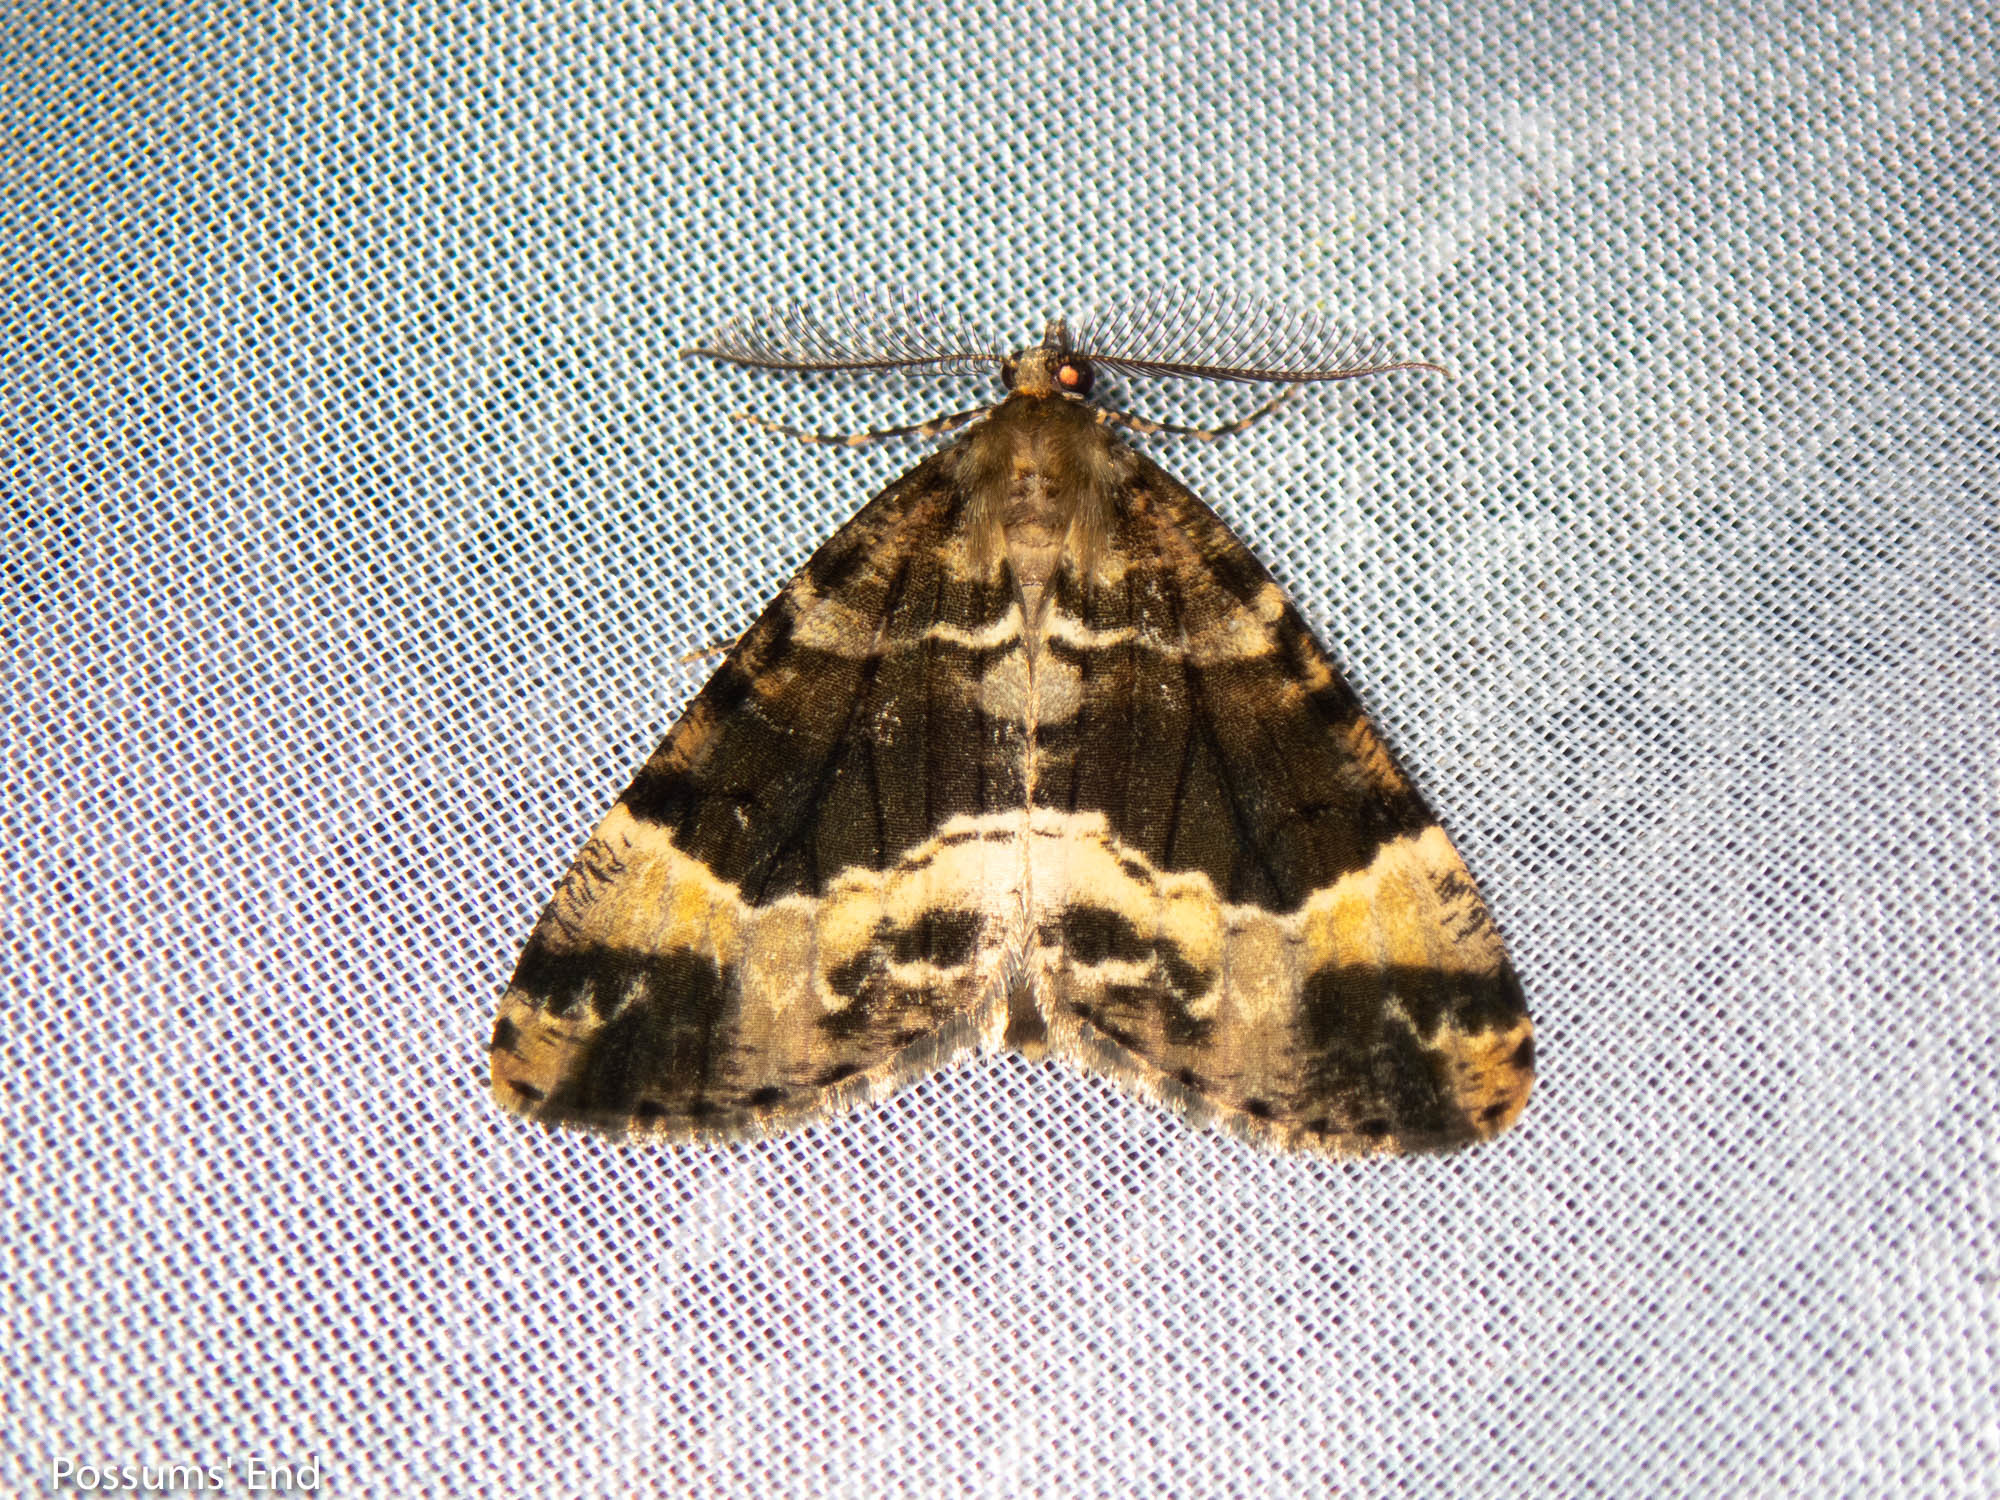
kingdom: Animalia
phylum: Arthropoda
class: Insecta
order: Lepidoptera
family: Geometridae
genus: Pseudocoremia
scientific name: Pseudocoremia productata
